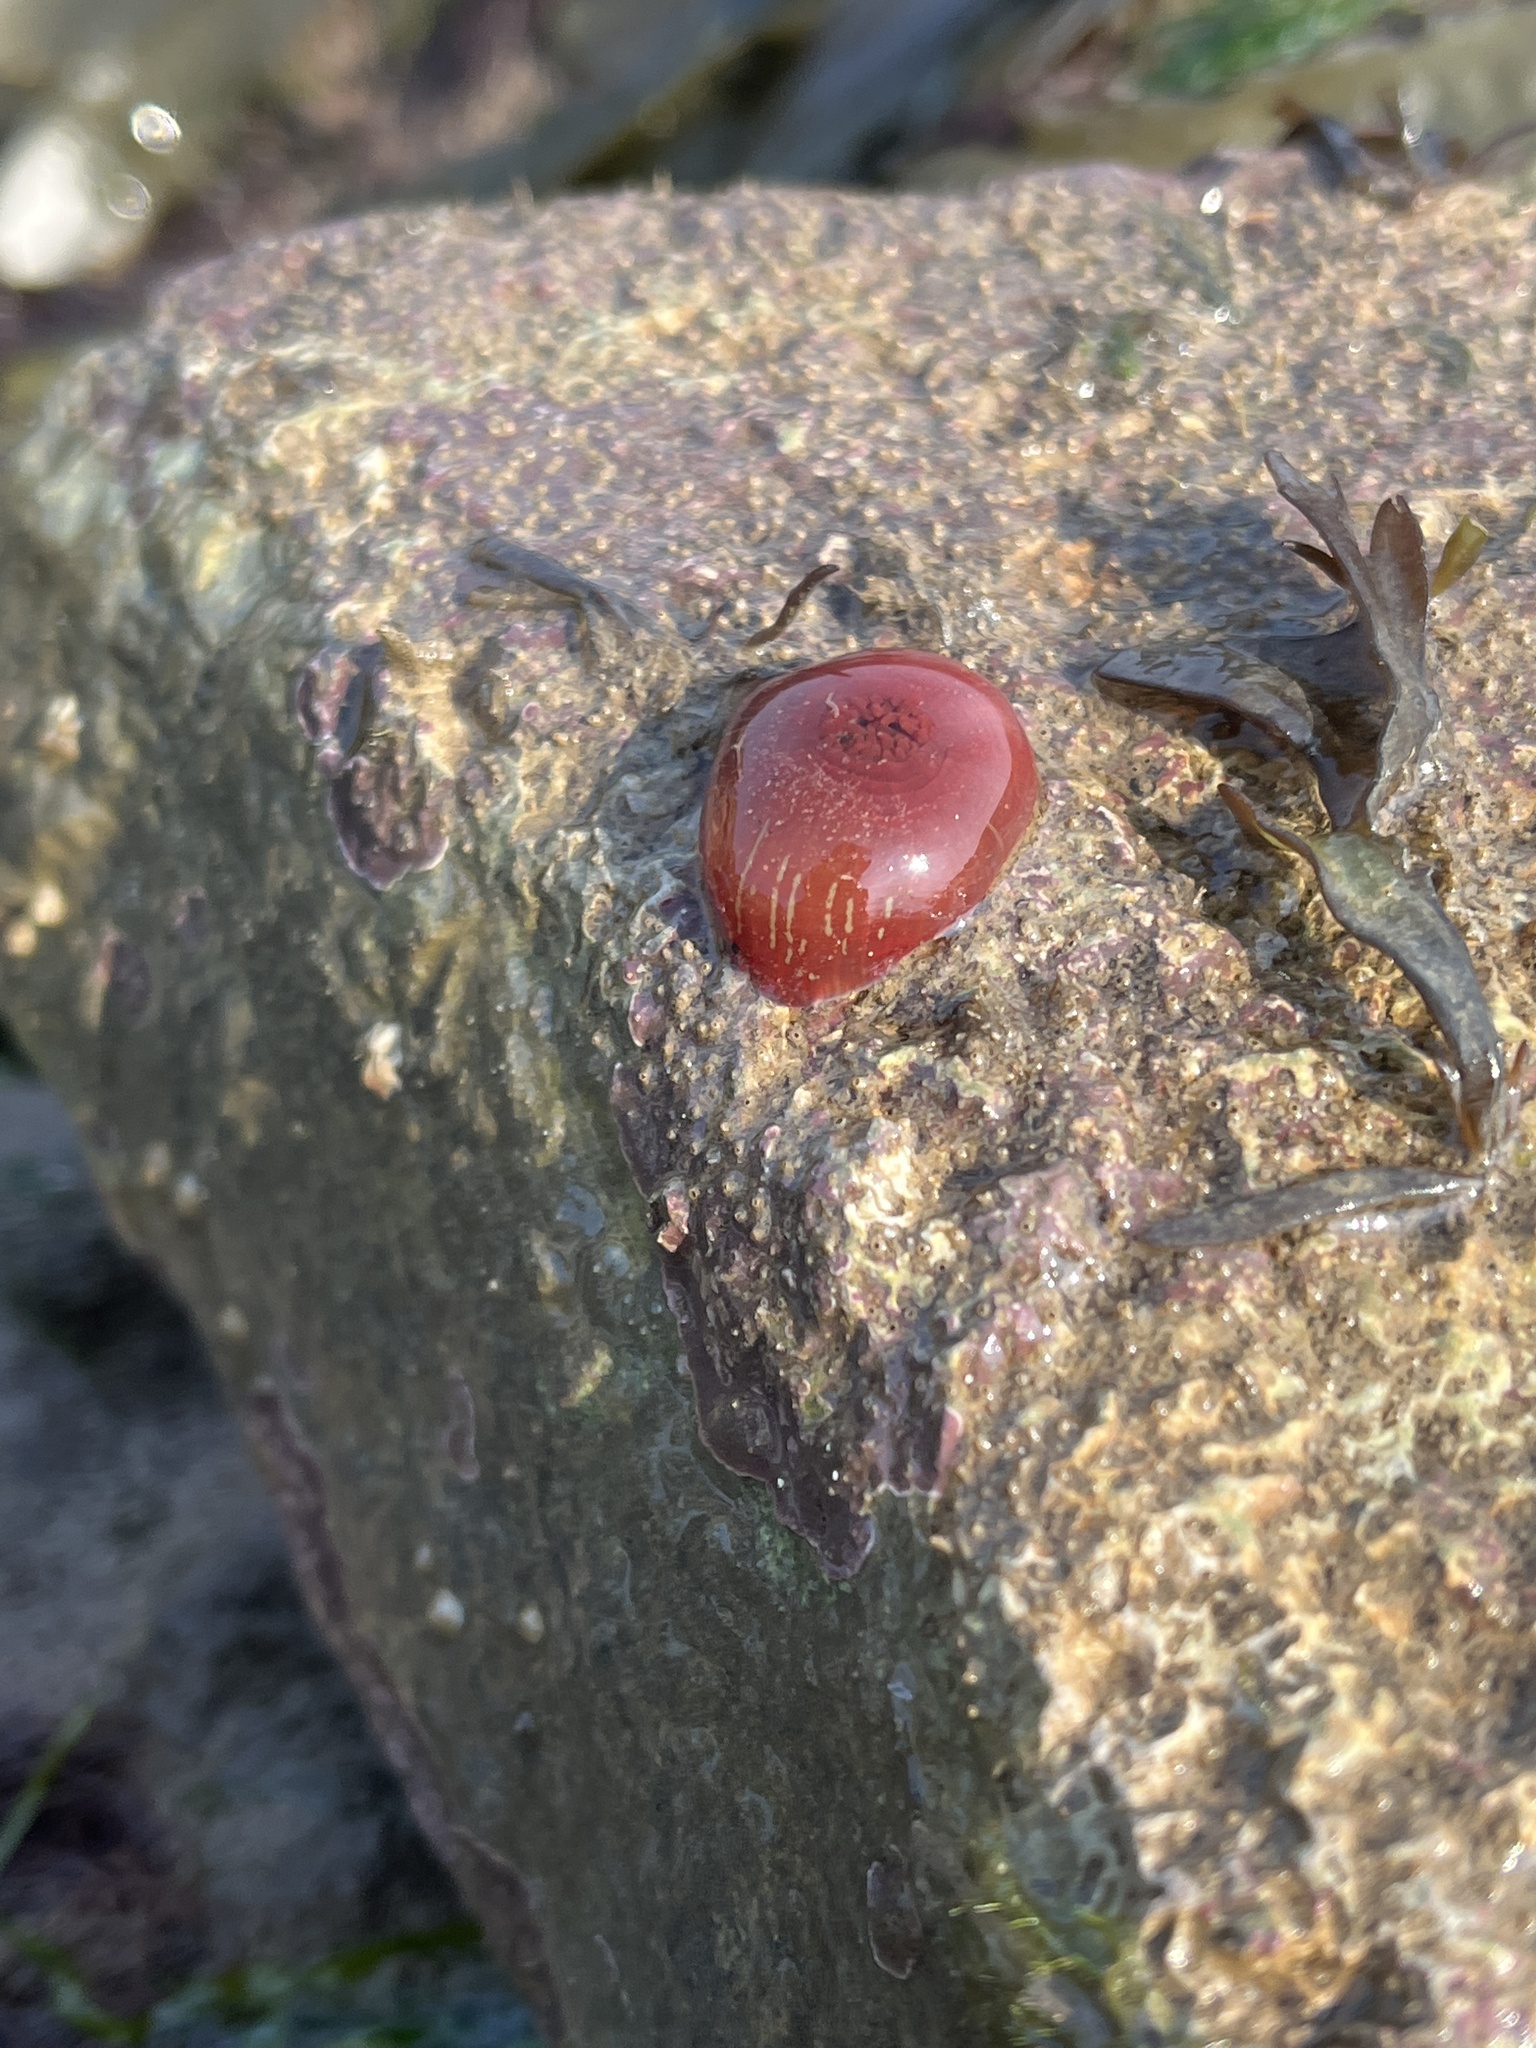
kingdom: Animalia
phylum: Cnidaria
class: Anthozoa
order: Actiniaria
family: Actiniidae
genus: Actinia
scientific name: Actinia equina
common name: Beadlet anemone
